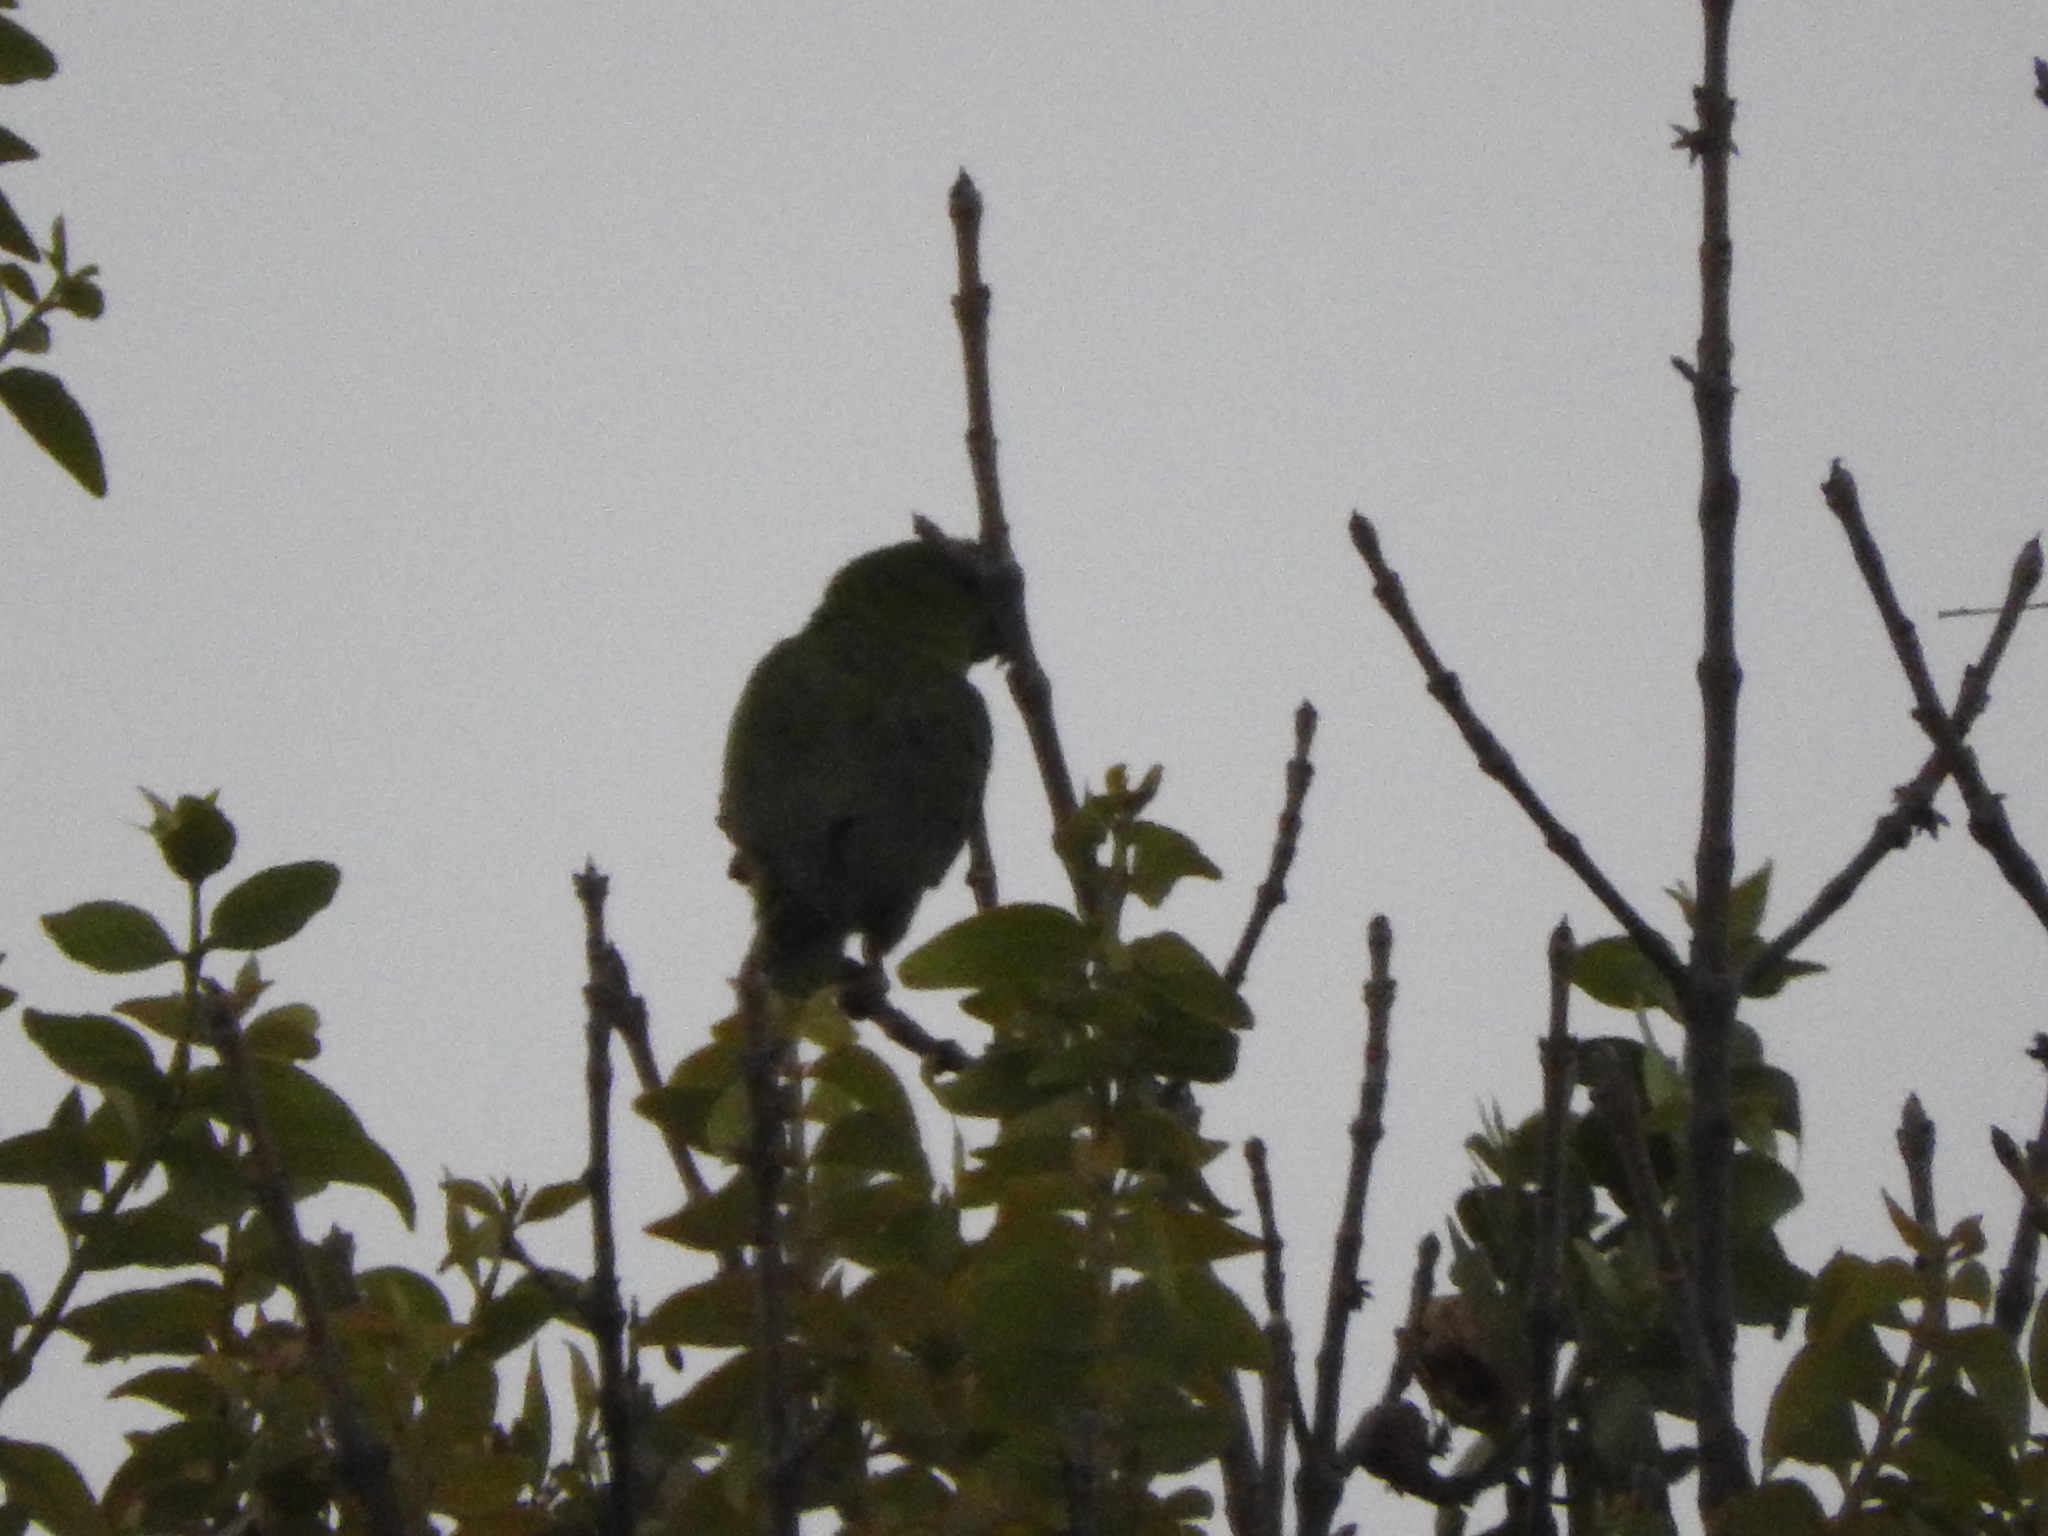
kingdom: Animalia
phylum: Chordata
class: Aves
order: Psittaciformes
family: Psittacidae
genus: Aratinga
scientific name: Aratinga holochlora
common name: Green parakeet
